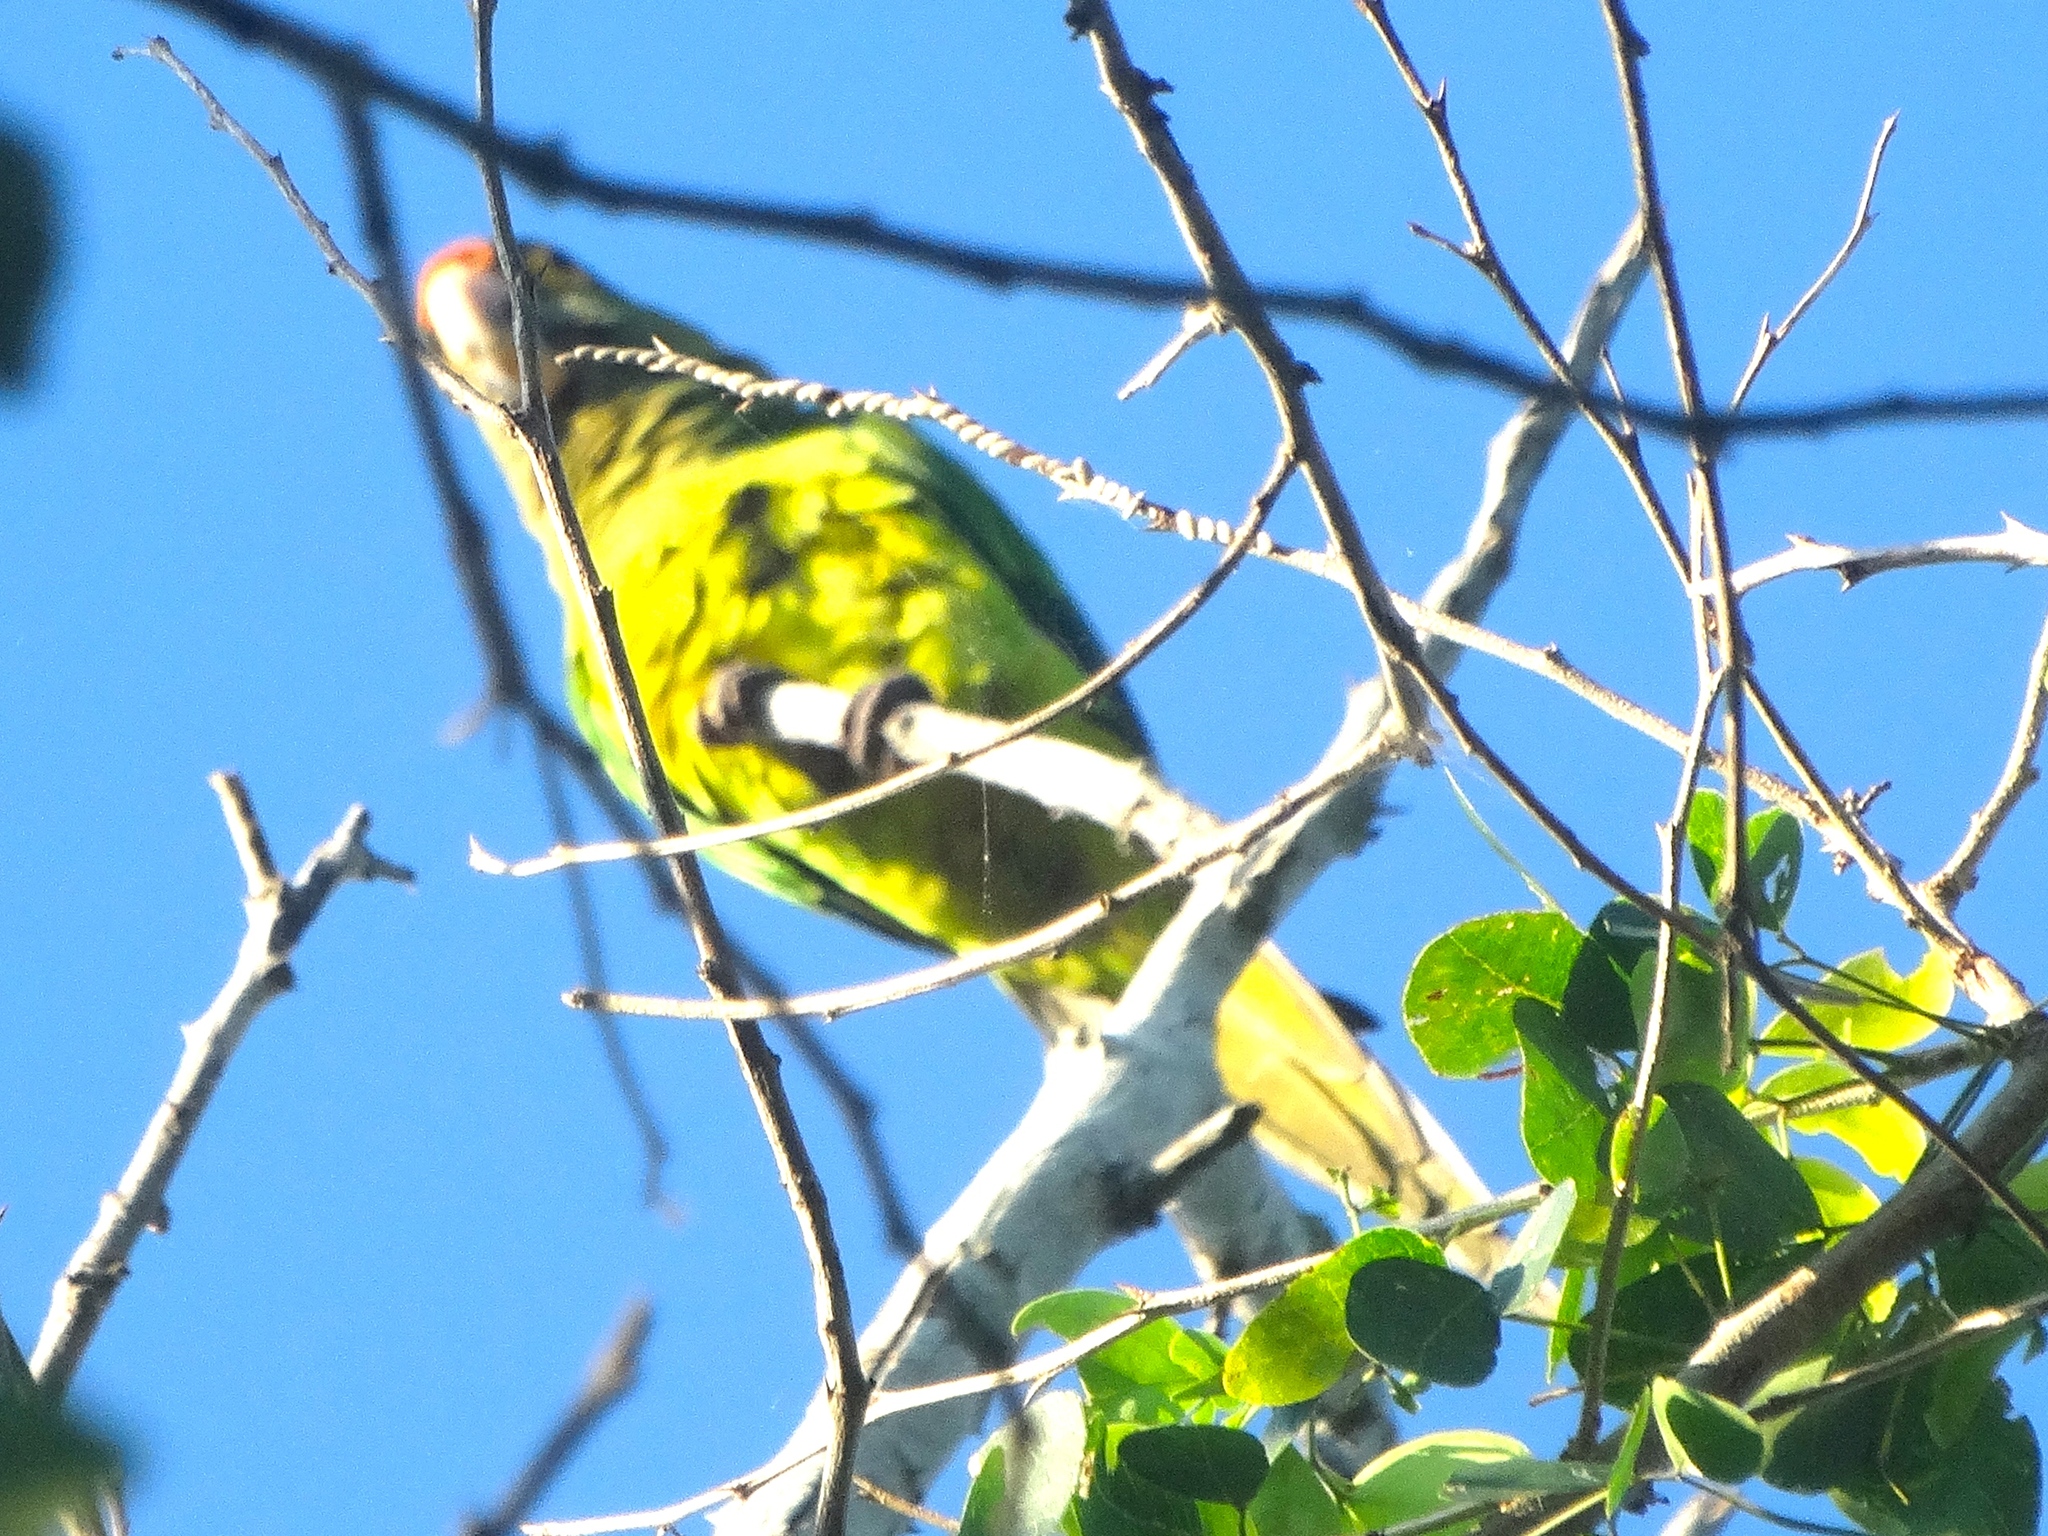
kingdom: Animalia
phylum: Chordata
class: Aves
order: Psittaciformes
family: Psittacidae
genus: Aratinga
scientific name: Aratinga canicularis
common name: Orange-fronted parakeet
